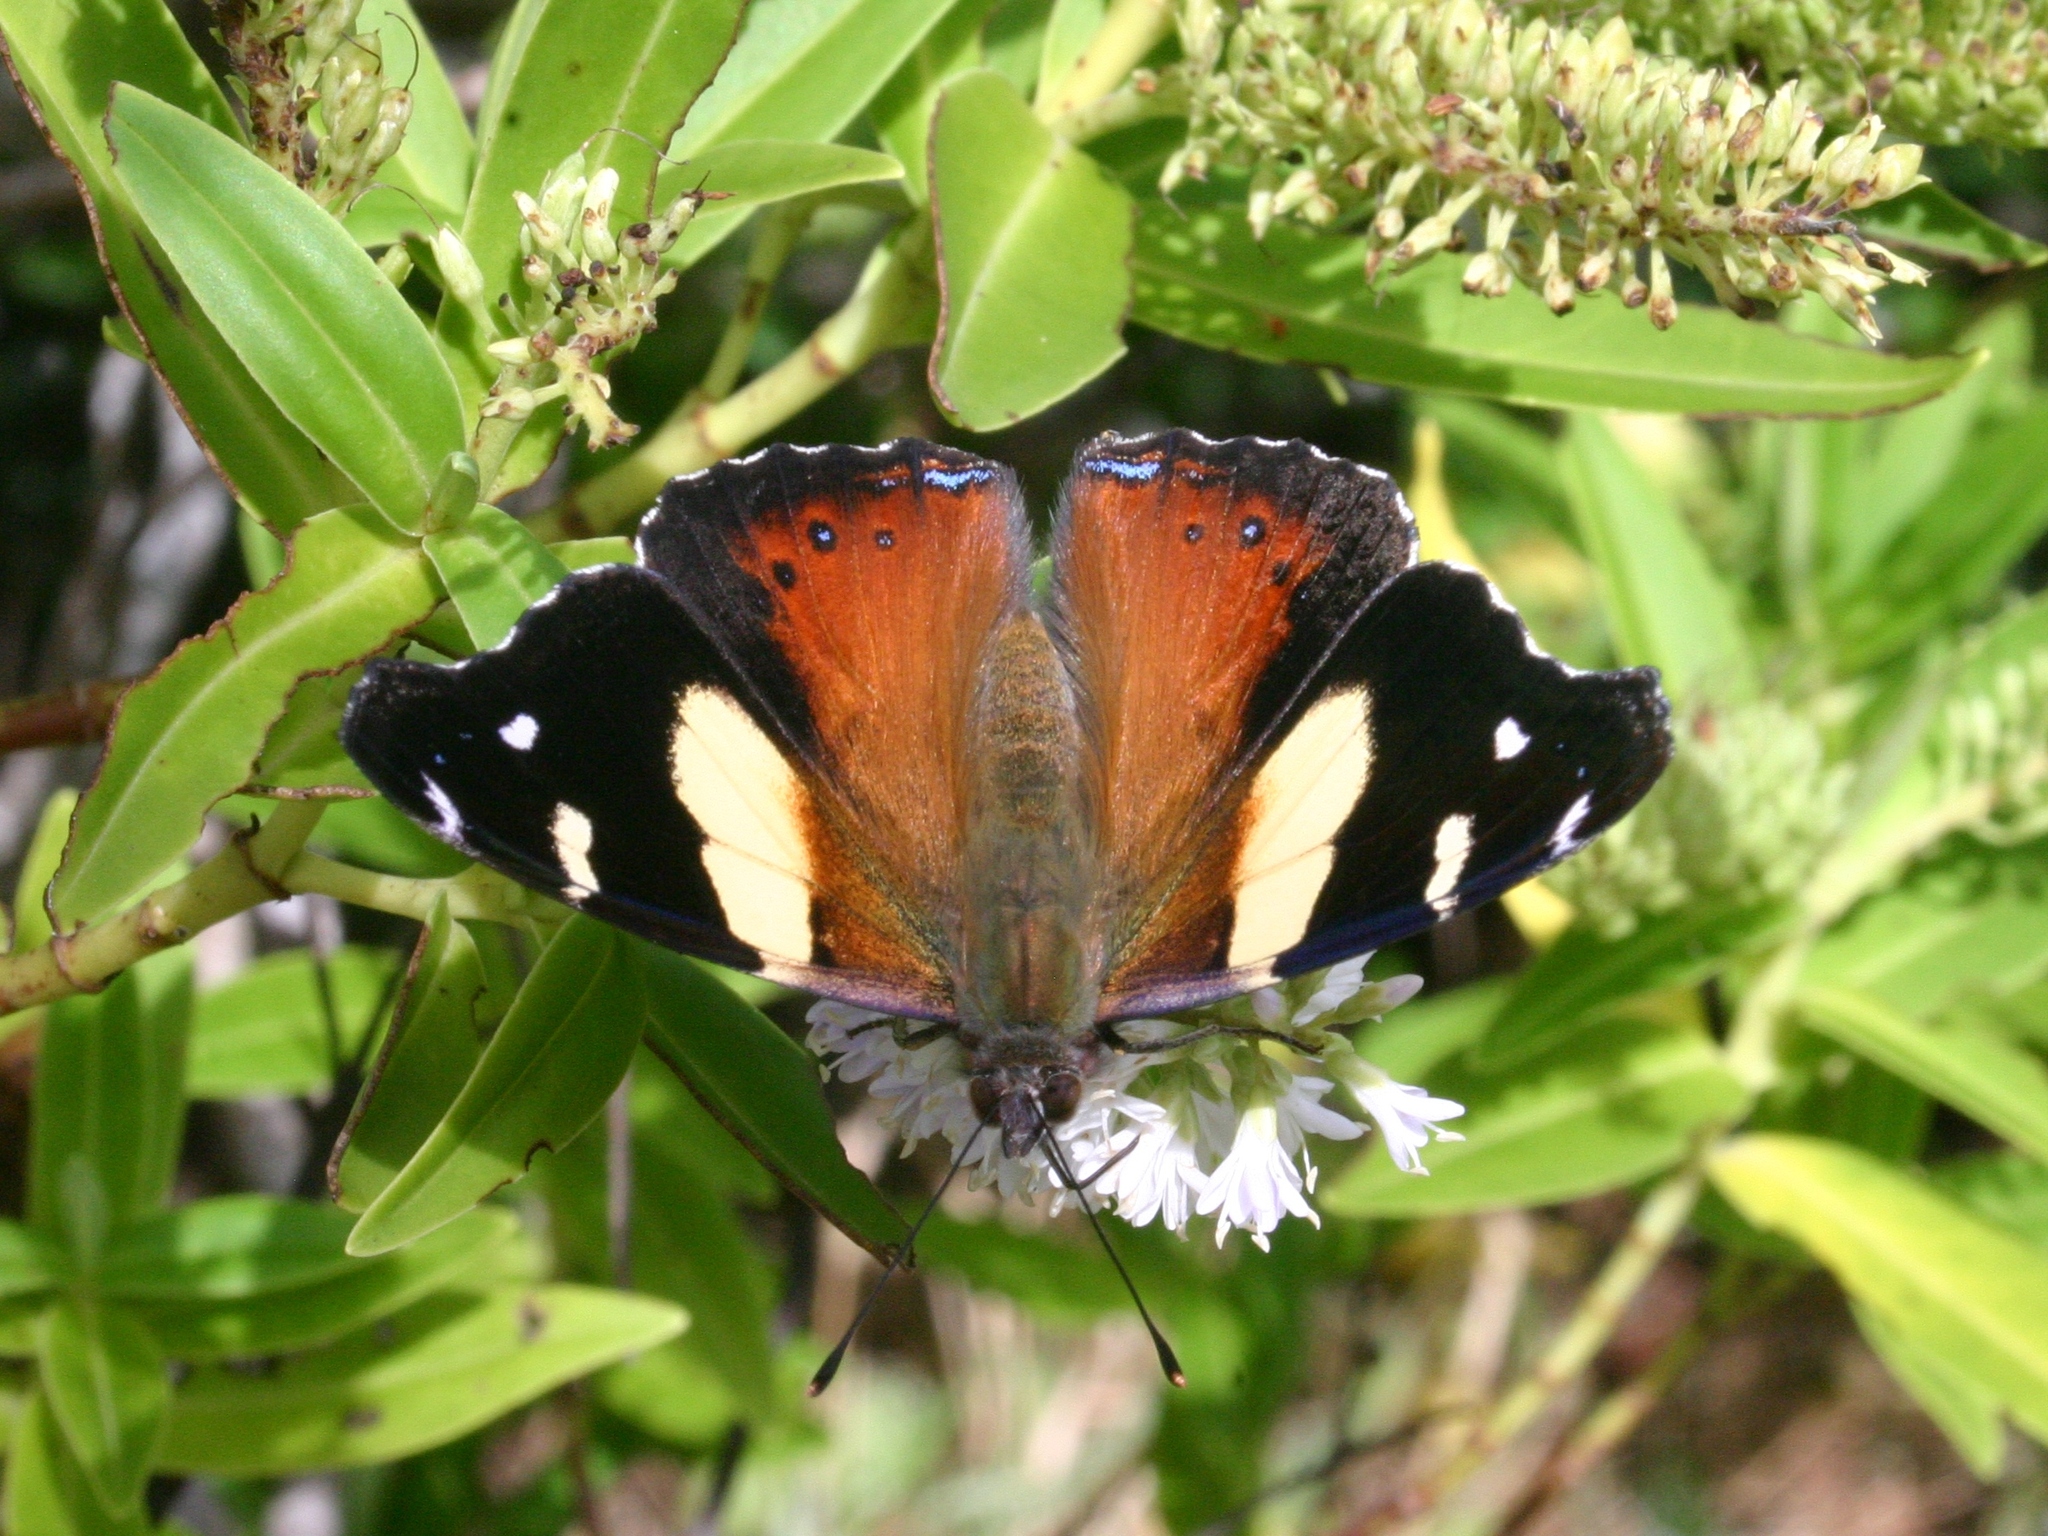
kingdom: Animalia
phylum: Arthropoda
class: Insecta
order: Lepidoptera
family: Nymphalidae
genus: Vanessa
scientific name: Vanessa itea
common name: Yellow admiral
